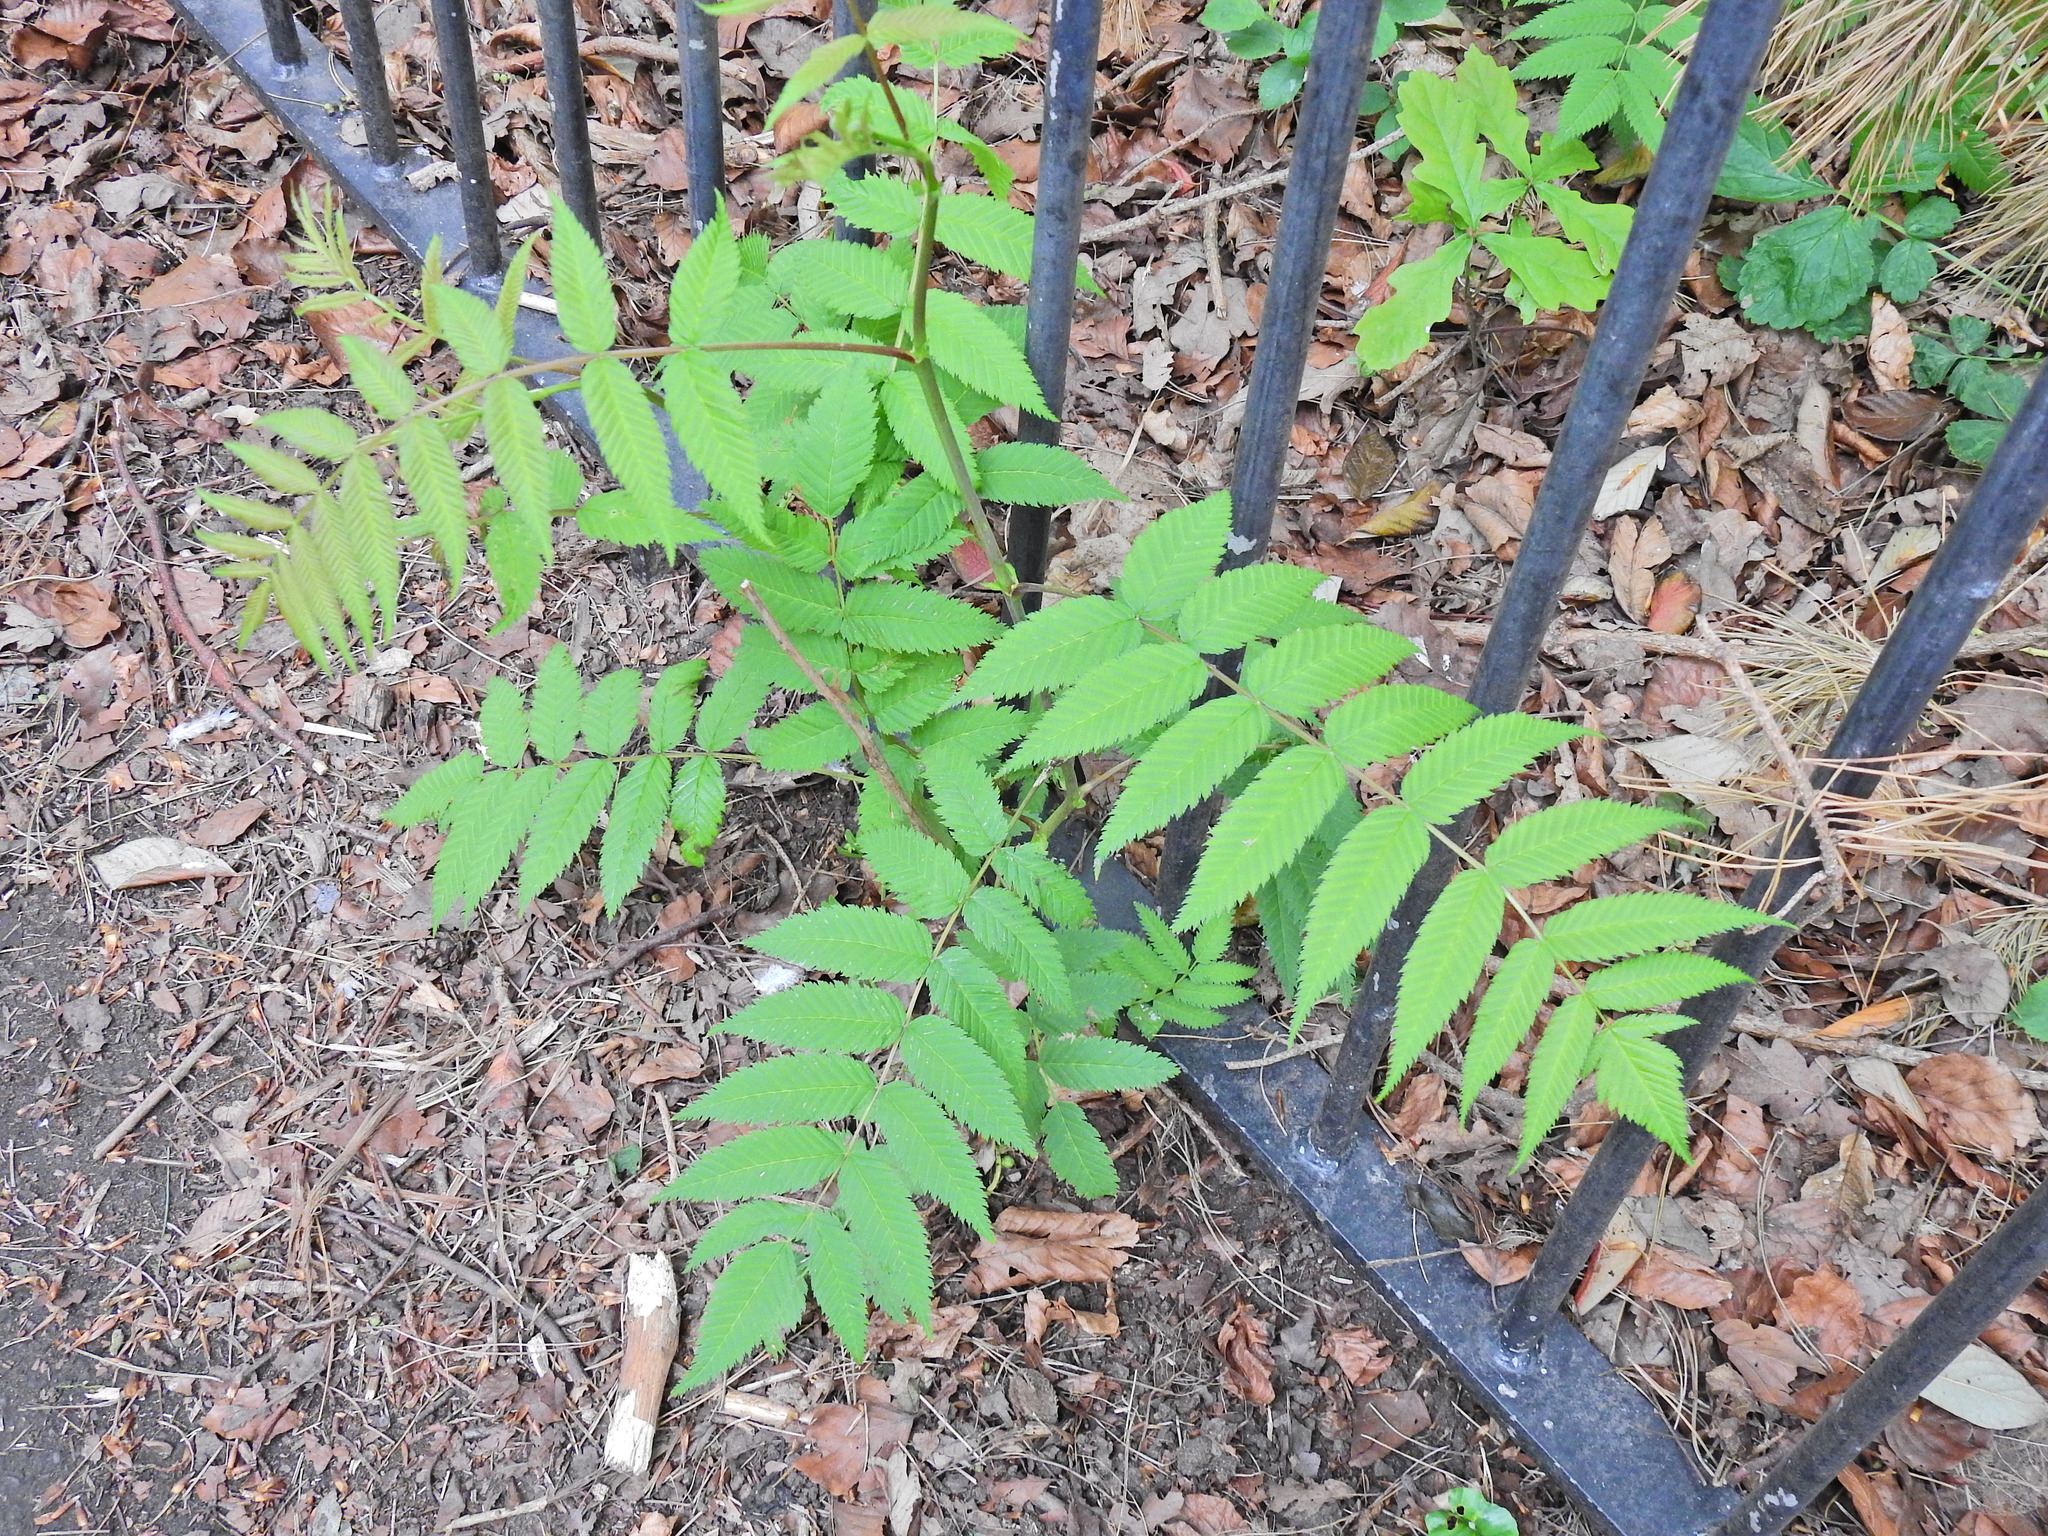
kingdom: Plantae
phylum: Tracheophyta
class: Magnoliopsida
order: Rosales
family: Rosaceae
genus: Sorbus
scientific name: Sorbus aucuparia
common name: Rowan
